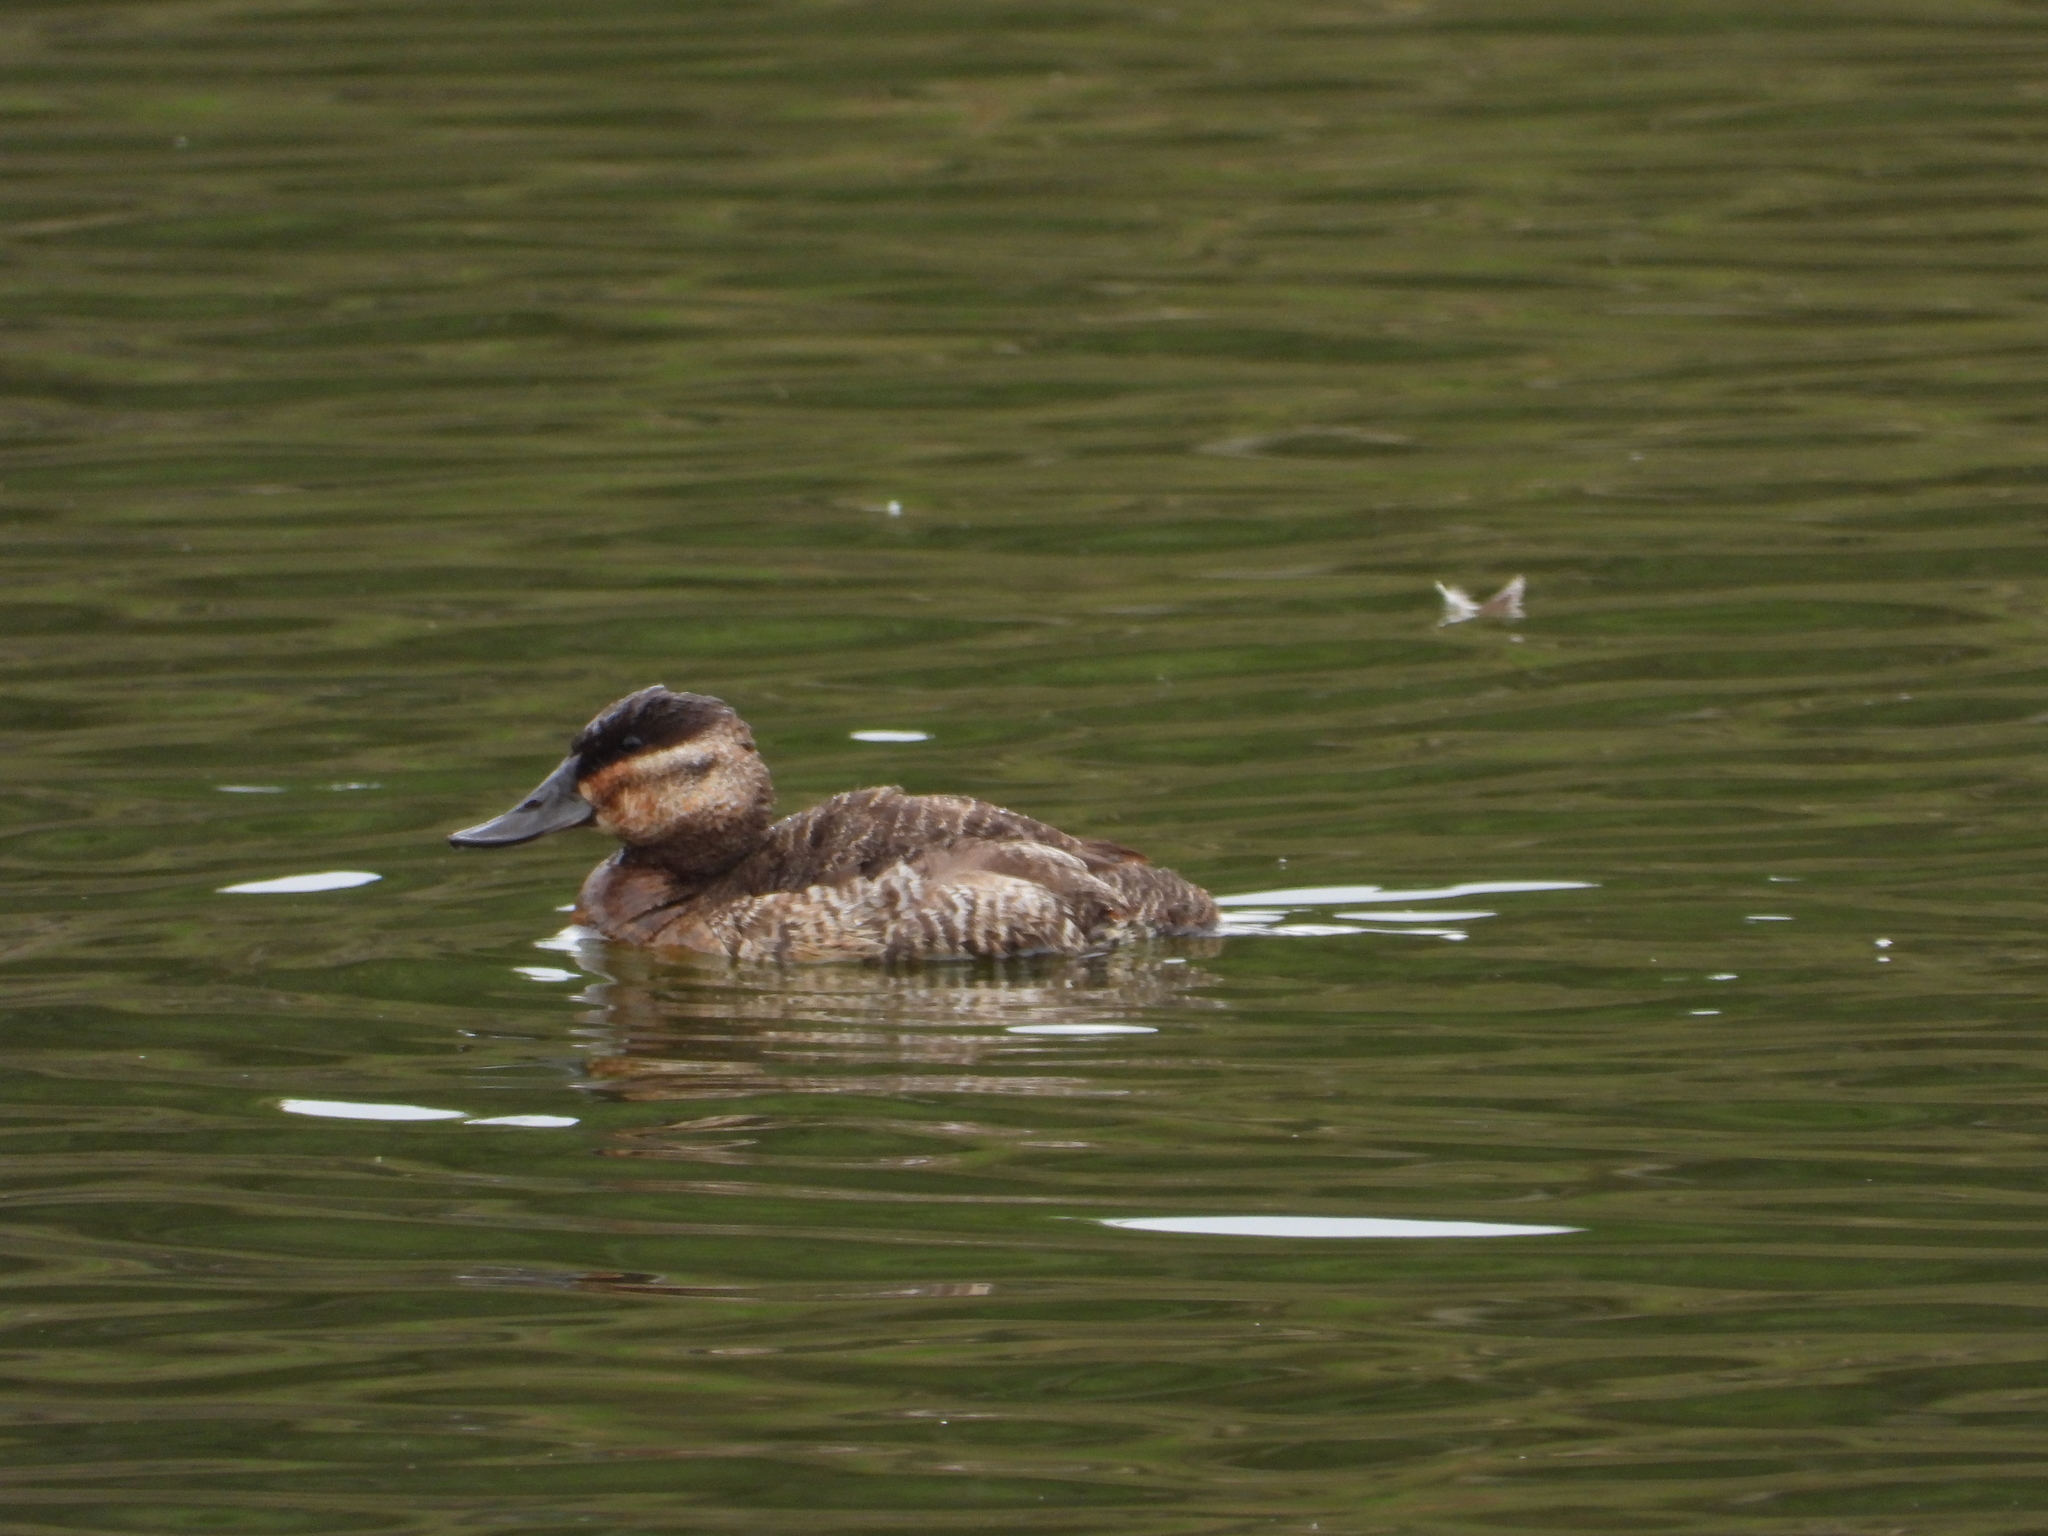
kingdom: Animalia
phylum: Chordata
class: Aves
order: Anseriformes
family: Anatidae
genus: Oxyura
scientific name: Oxyura jamaicensis
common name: Ruddy duck
